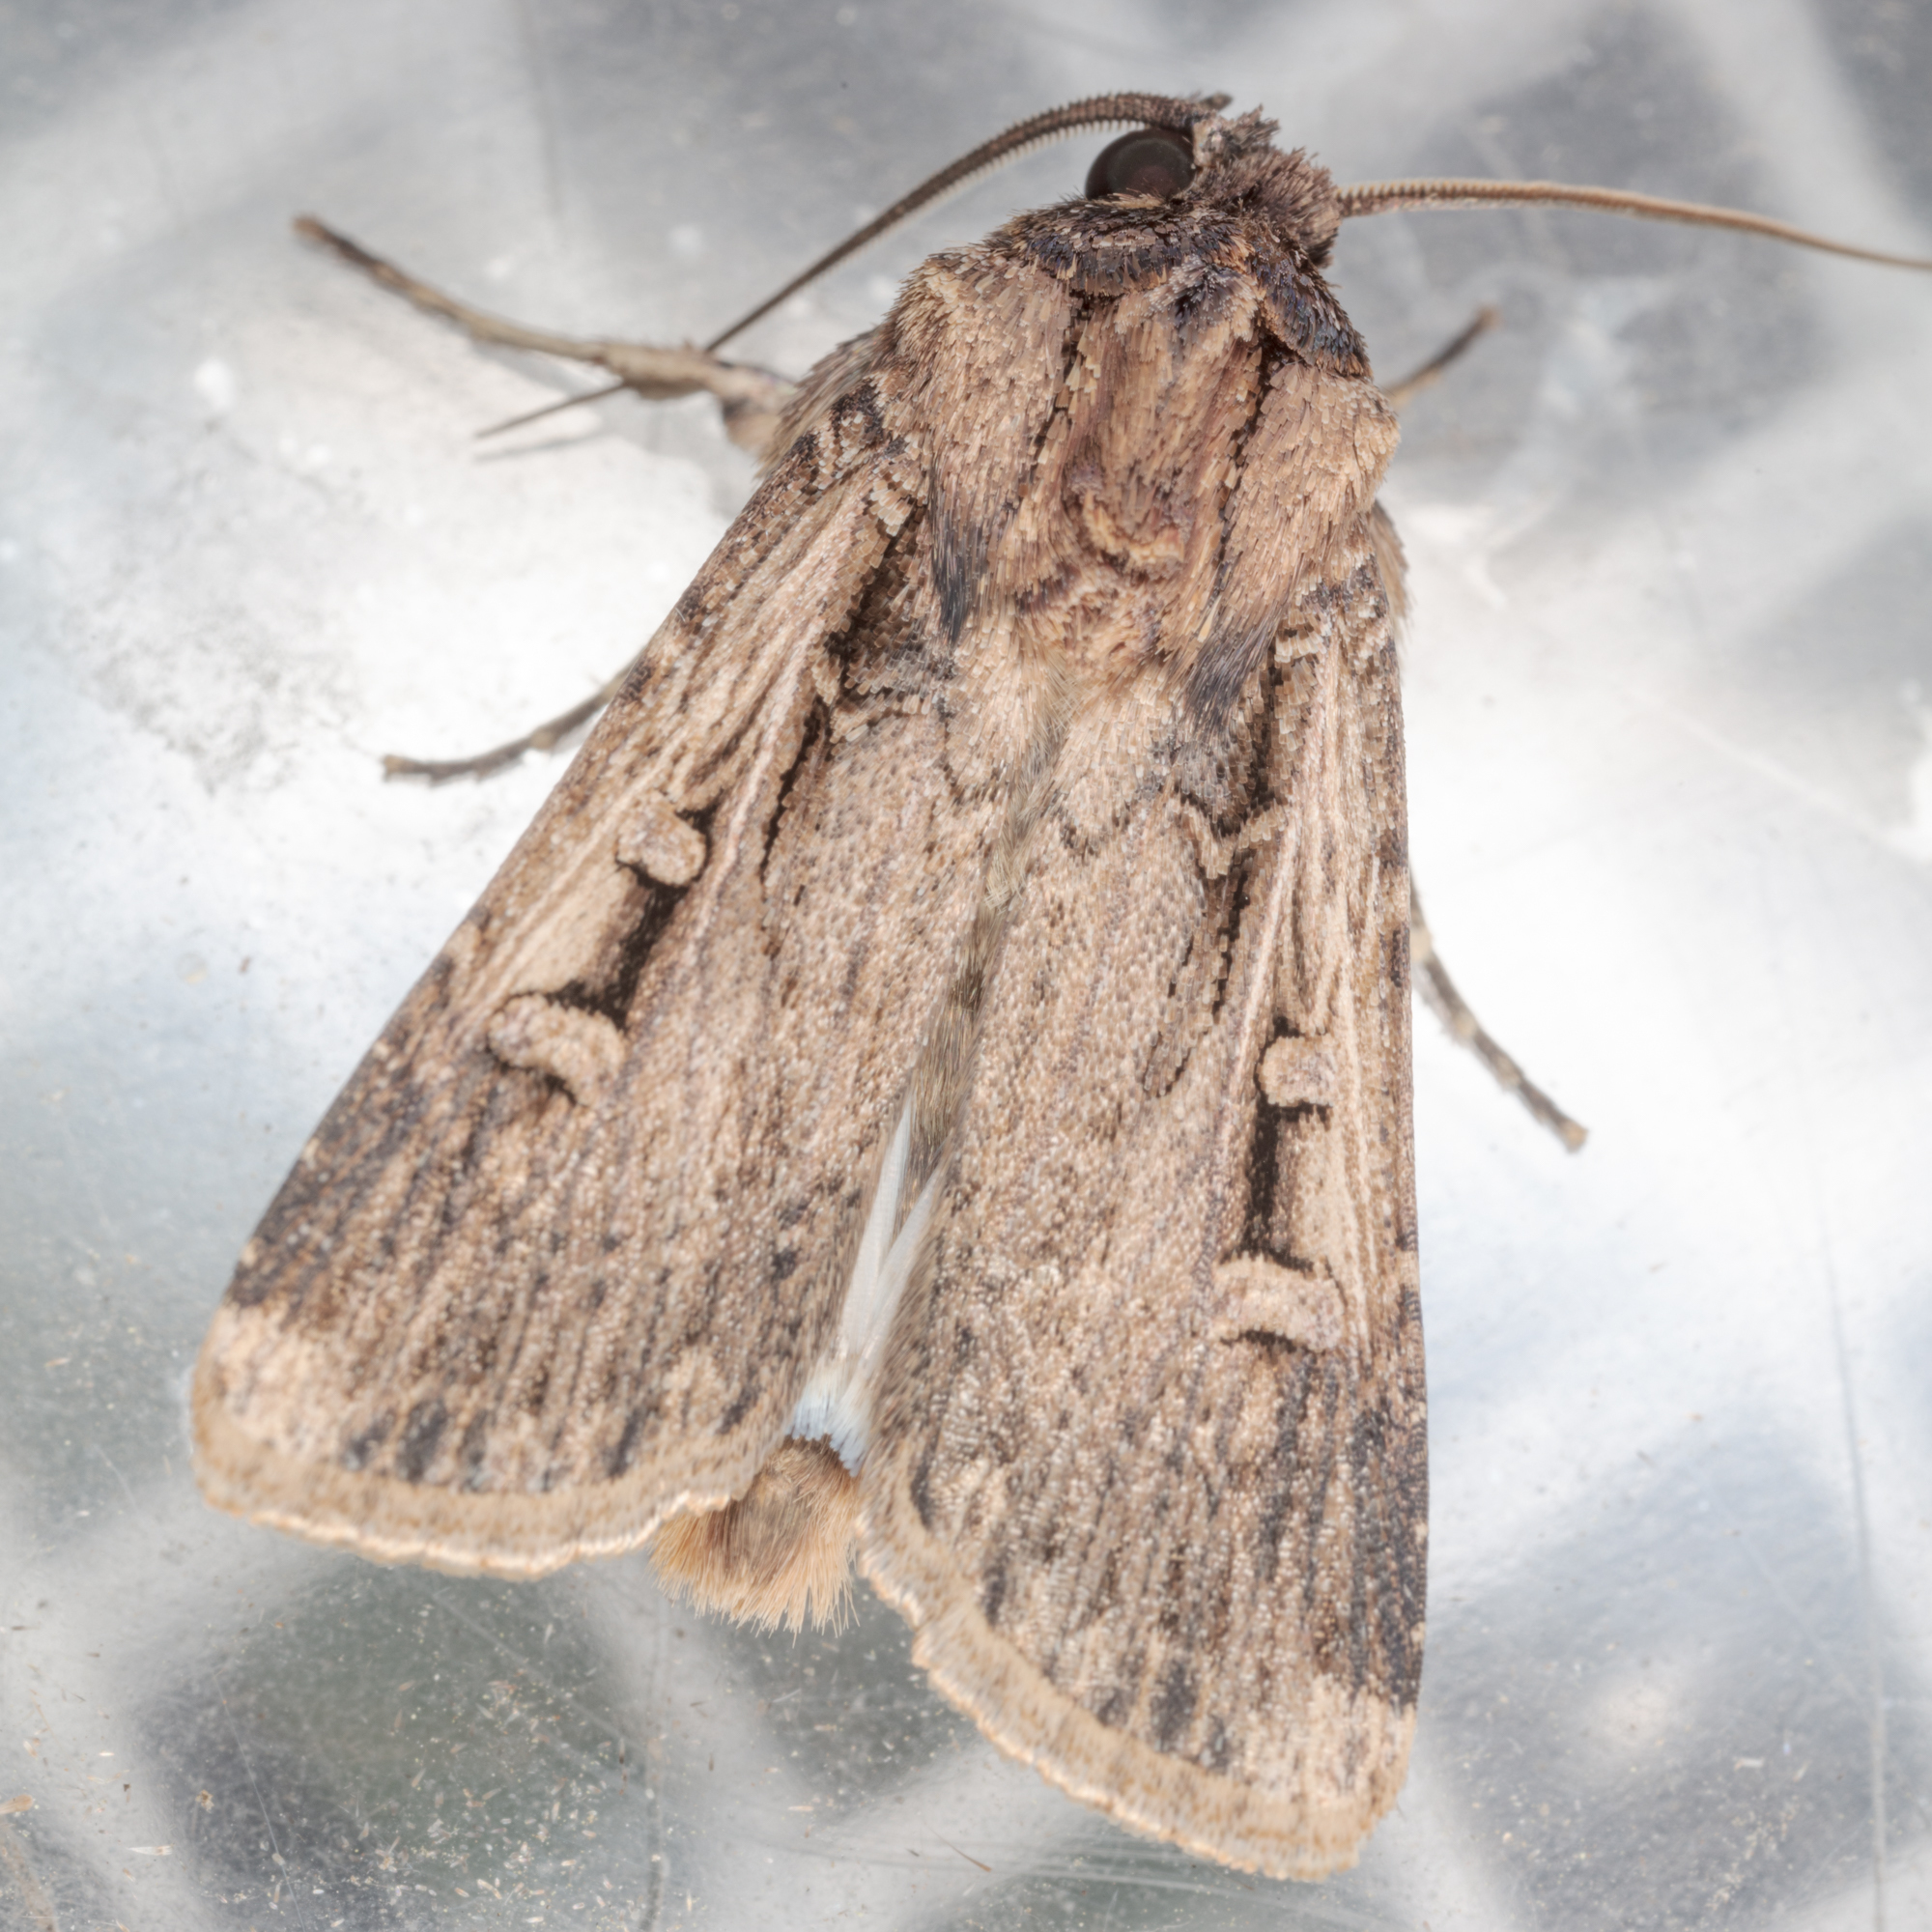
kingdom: Animalia
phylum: Arthropoda
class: Insecta
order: Lepidoptera
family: Noctuidae
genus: Feltia
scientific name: Feltia subterranea
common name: Granulate cutworm
